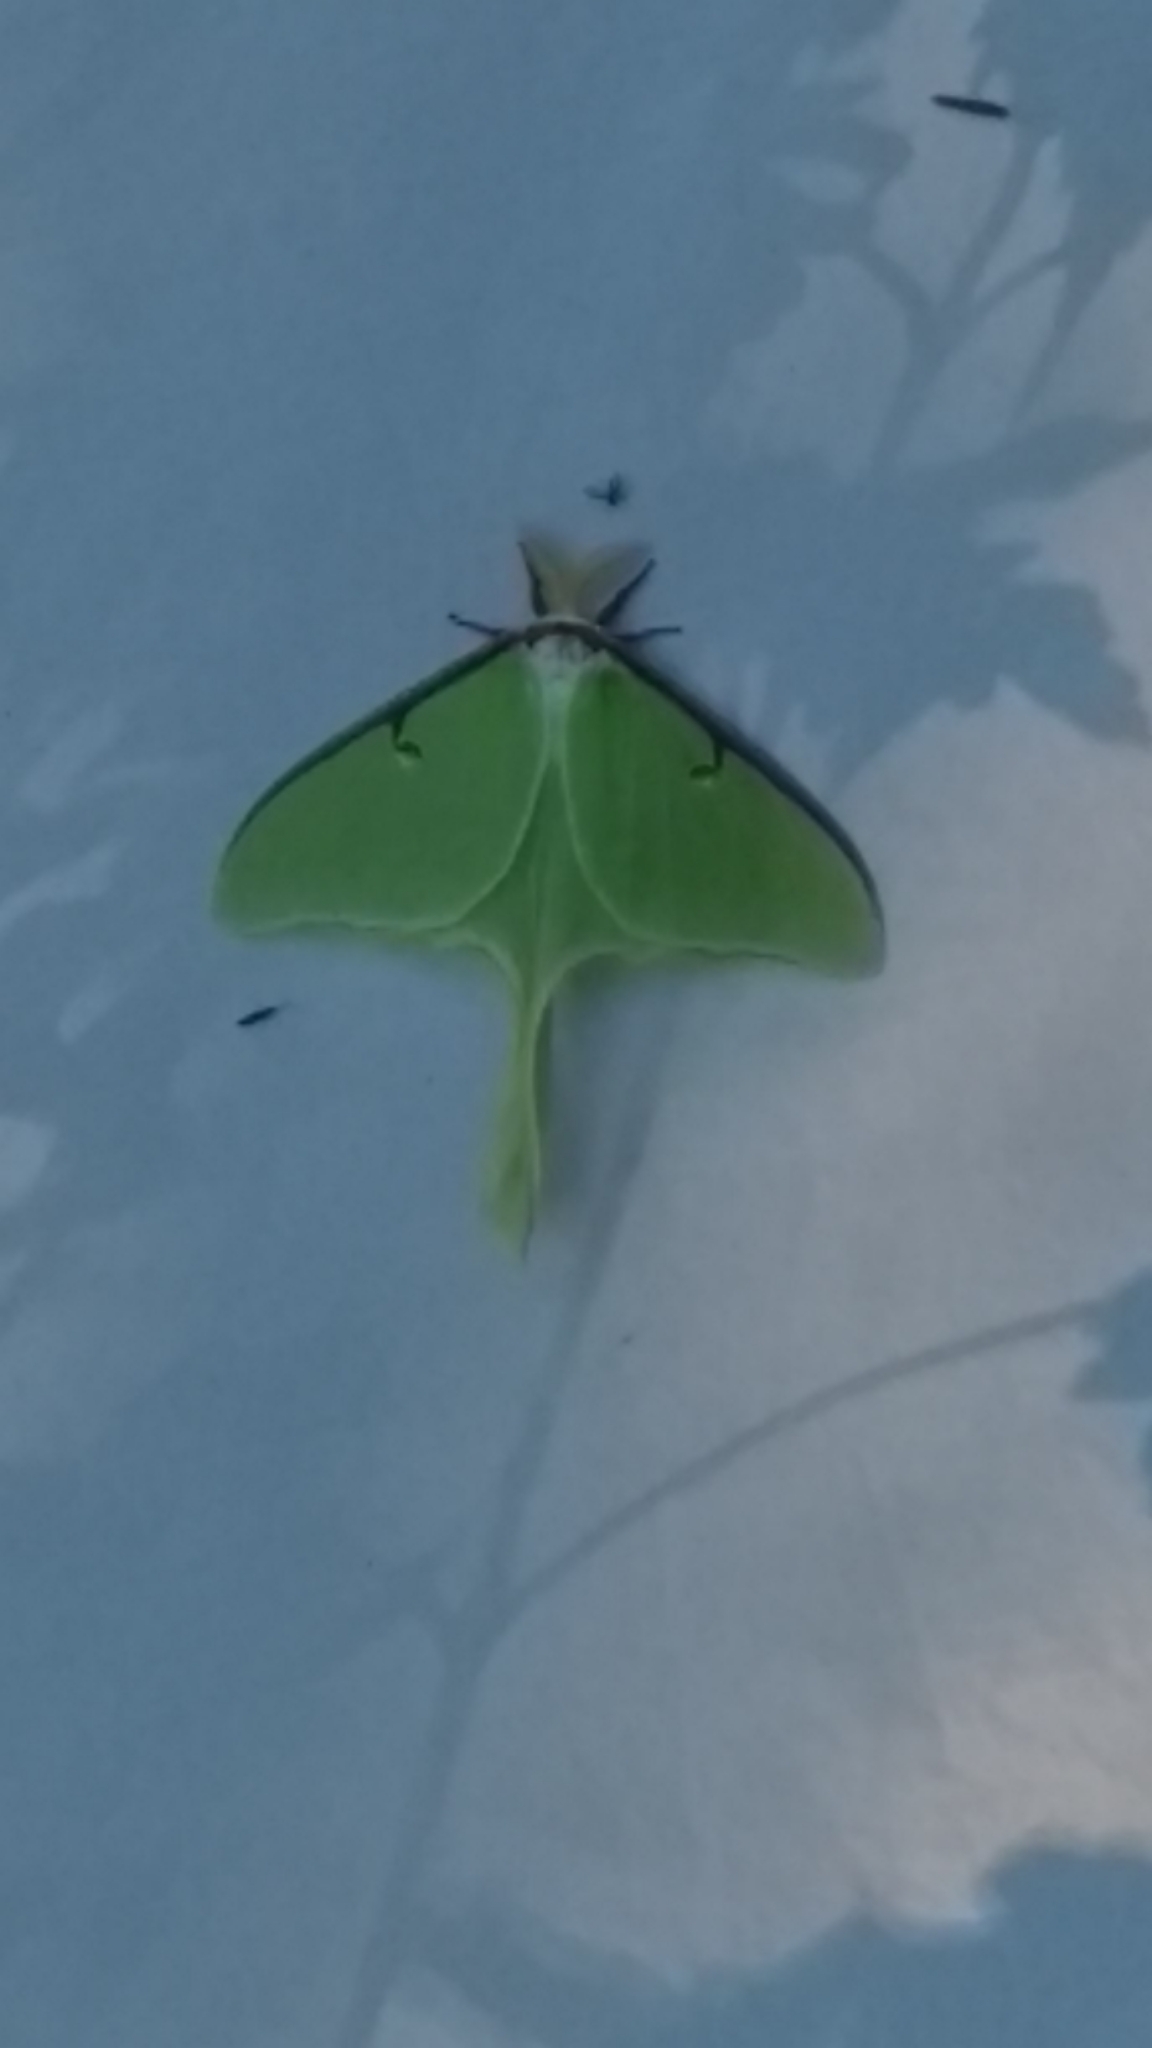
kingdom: Animalia
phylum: Arthropoda
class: Insecta
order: Lepidoptera
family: Saturniidae
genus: Actias
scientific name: Actias luna
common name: Luna moth
